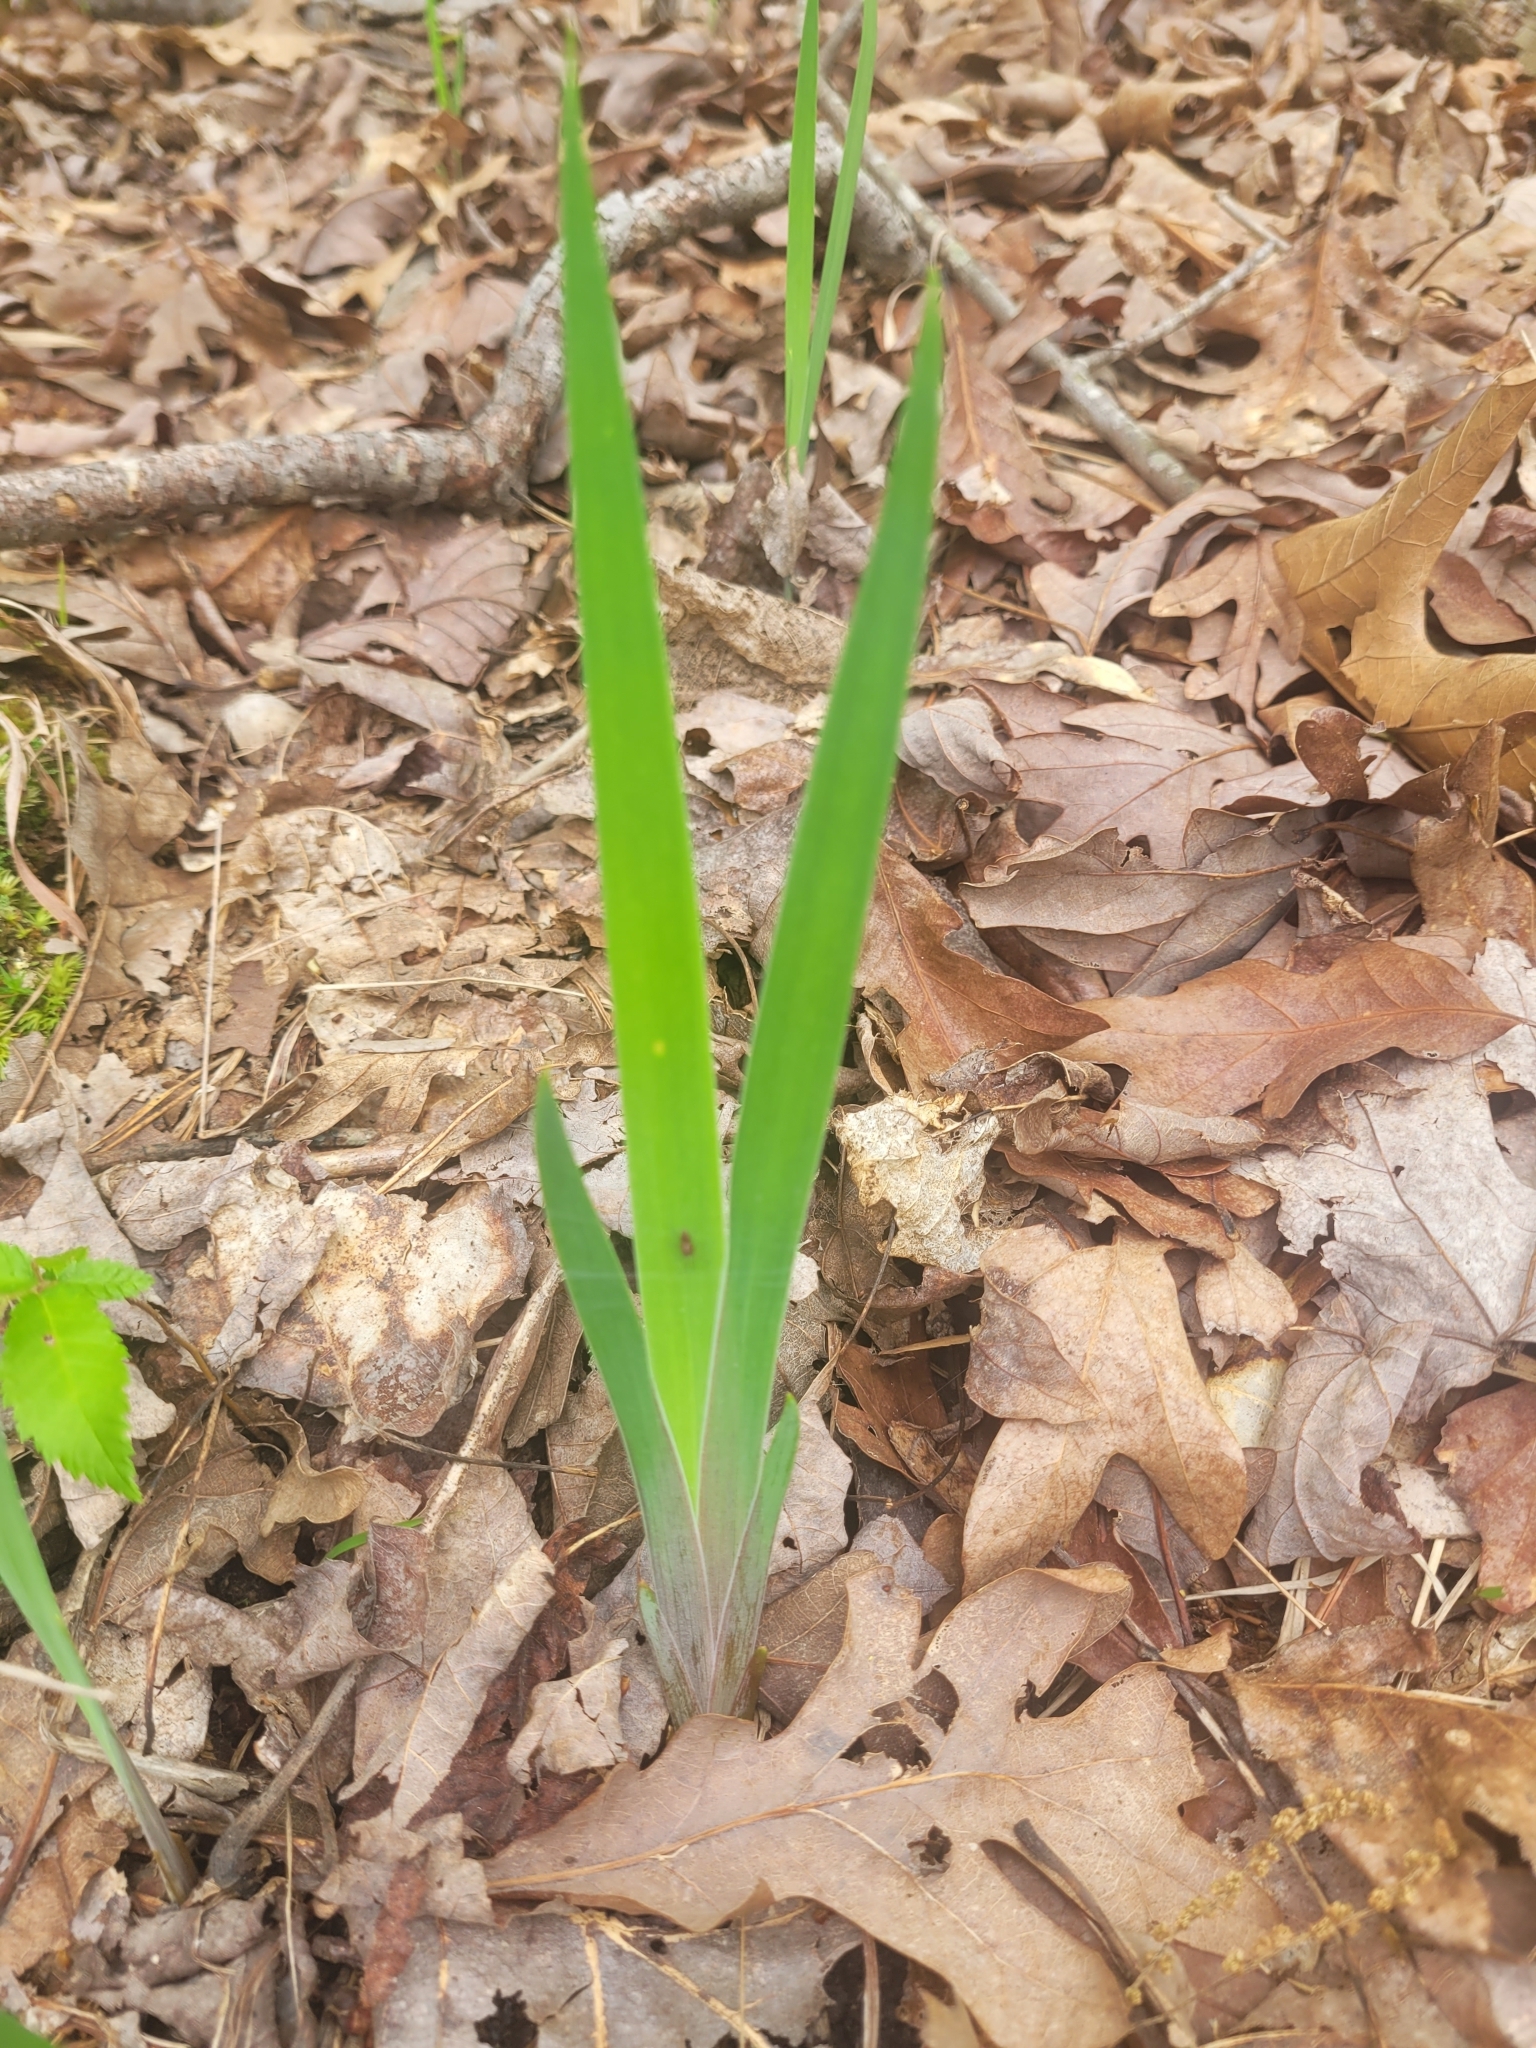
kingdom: Plantae
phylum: Tracheophyta
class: Liliopsida
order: Asparagales
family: Iridaceae
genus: Iris
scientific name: Iris verna
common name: Dwarf iris
